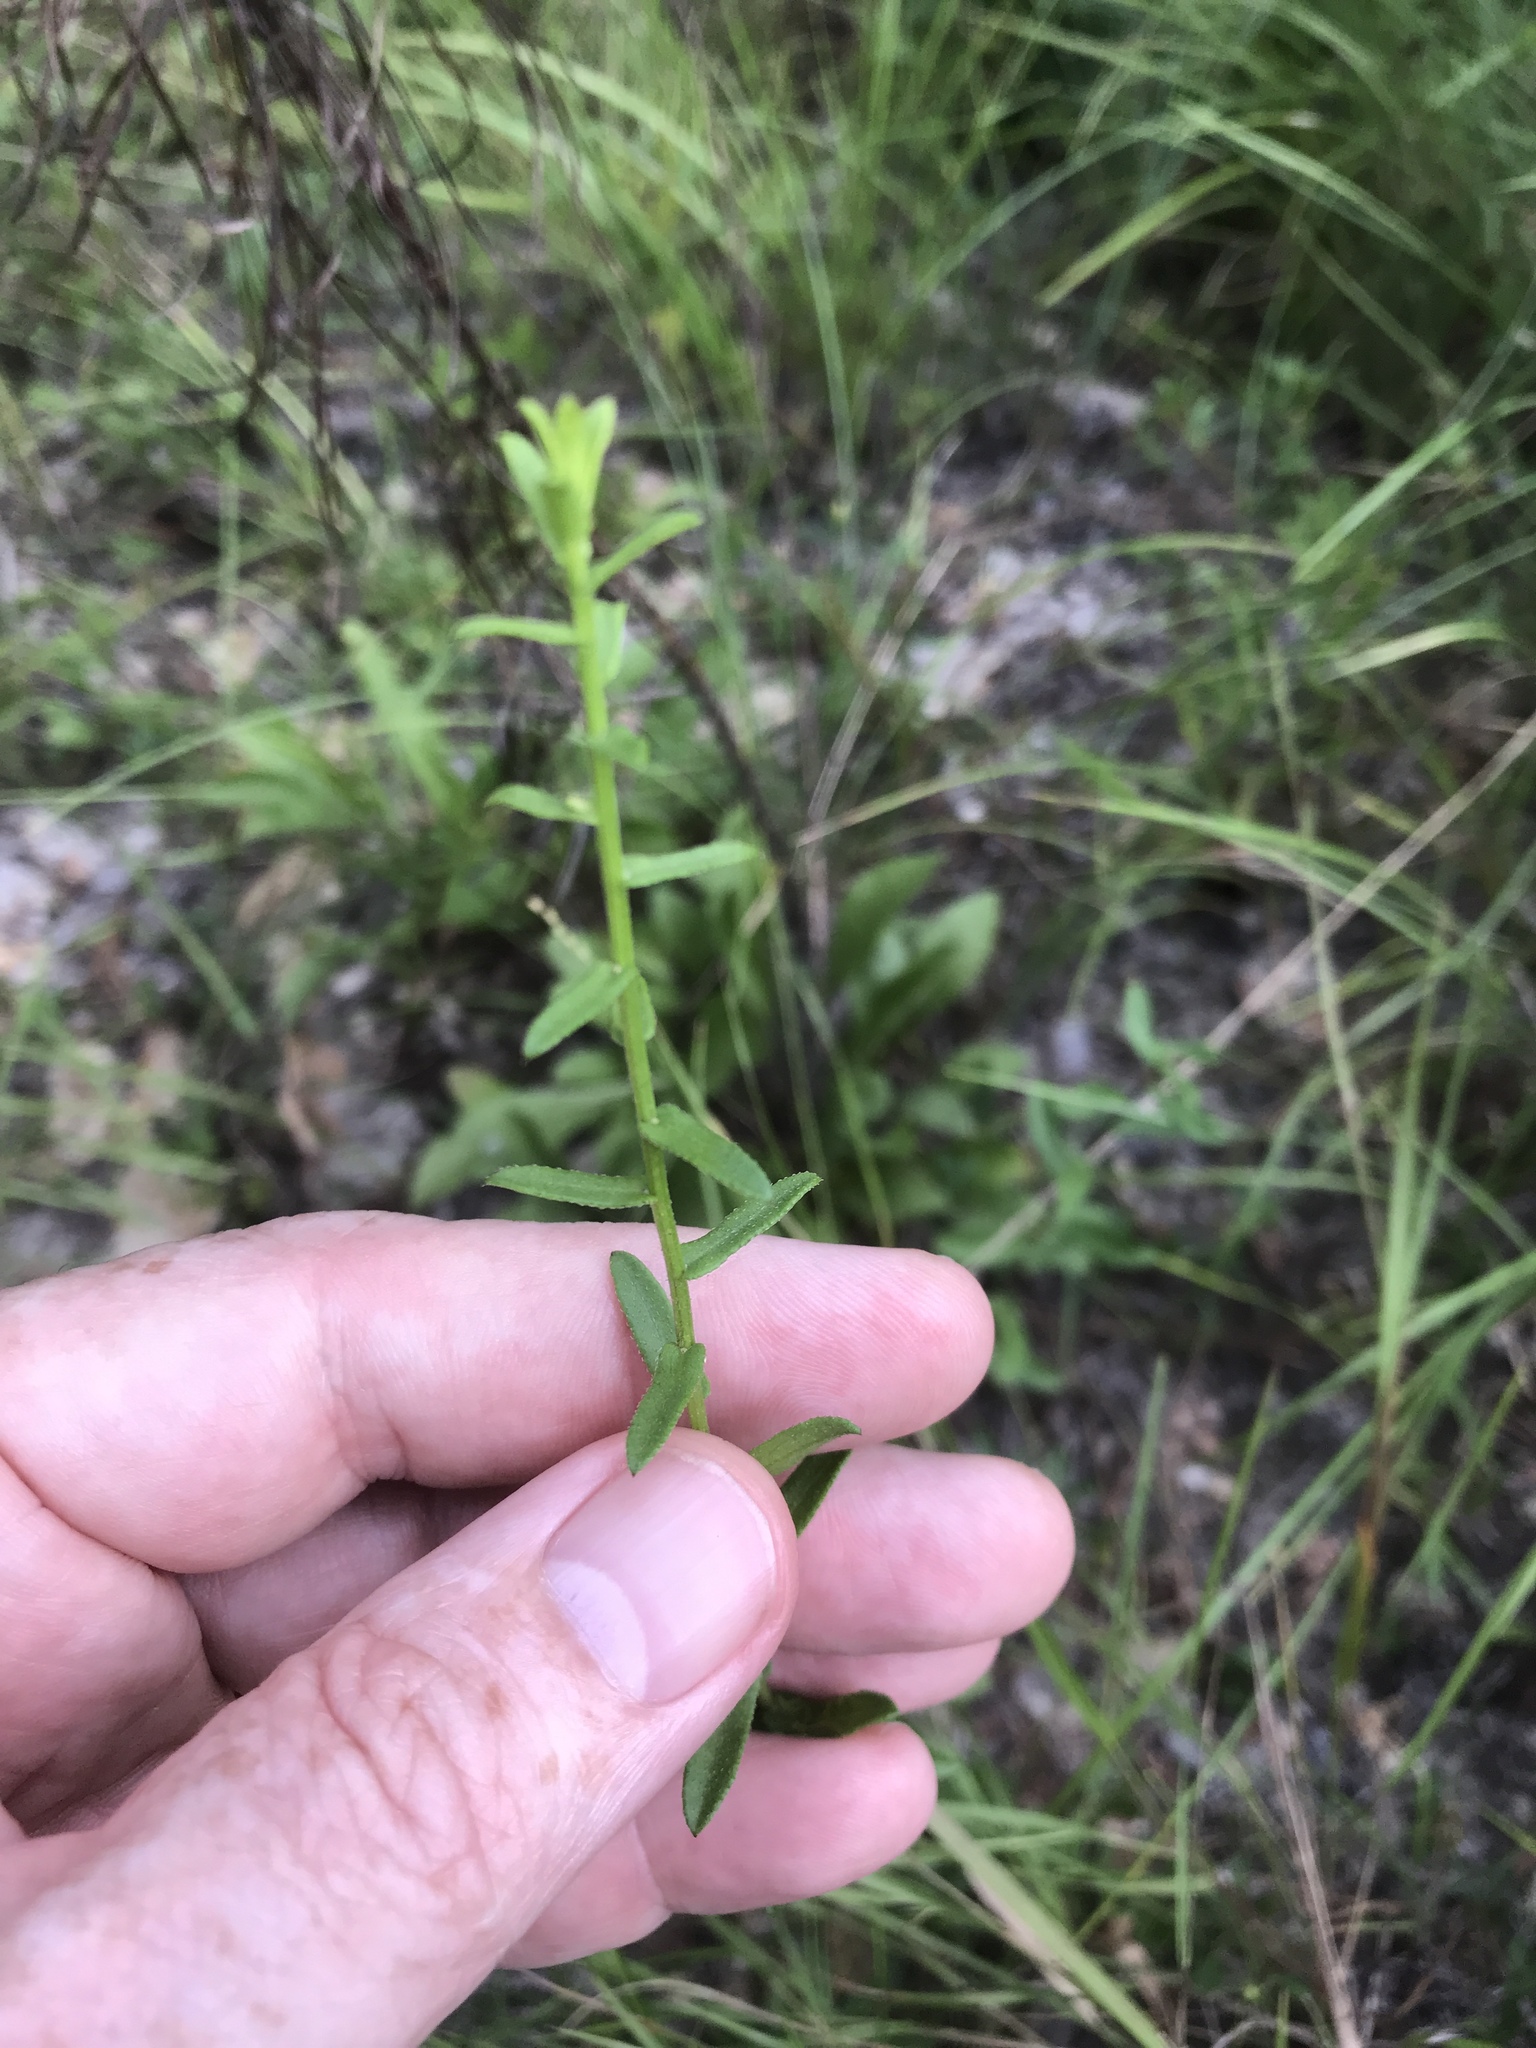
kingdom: Plantae
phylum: Tracheophyta
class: Magnoliopsida
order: Asterales
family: Asteraceae
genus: Symphyotrichum
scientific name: Symphyotrichum grandiflorum
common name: Big-head aster
